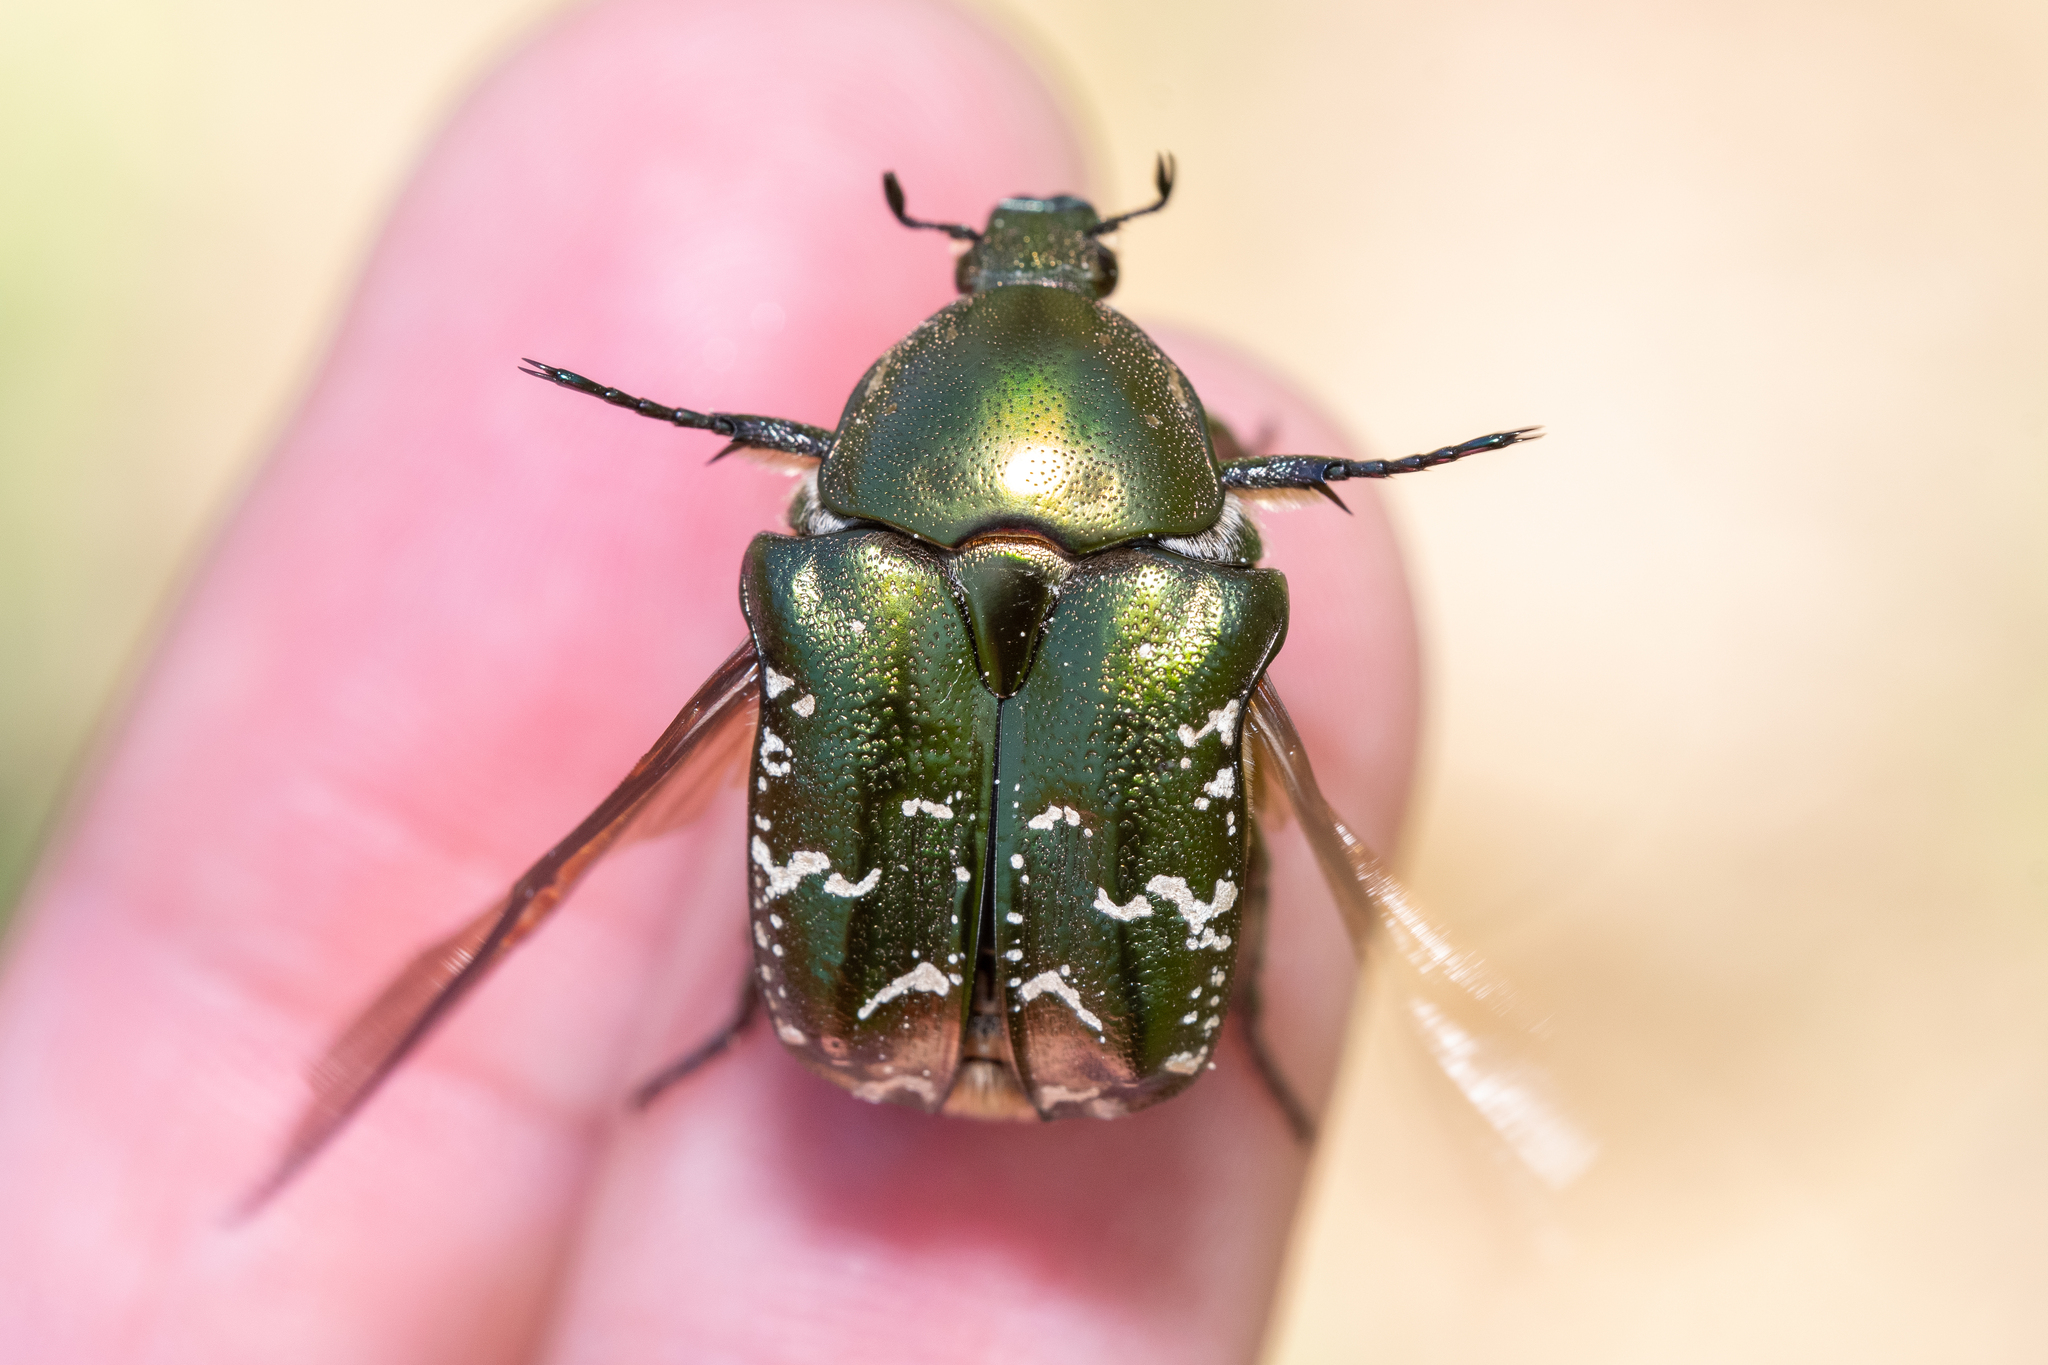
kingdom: Animalia
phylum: Arthropoda
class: Insecta
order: Coleoptera
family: Scarabaeidae
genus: Protaetia
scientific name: Protaetia cuprea
